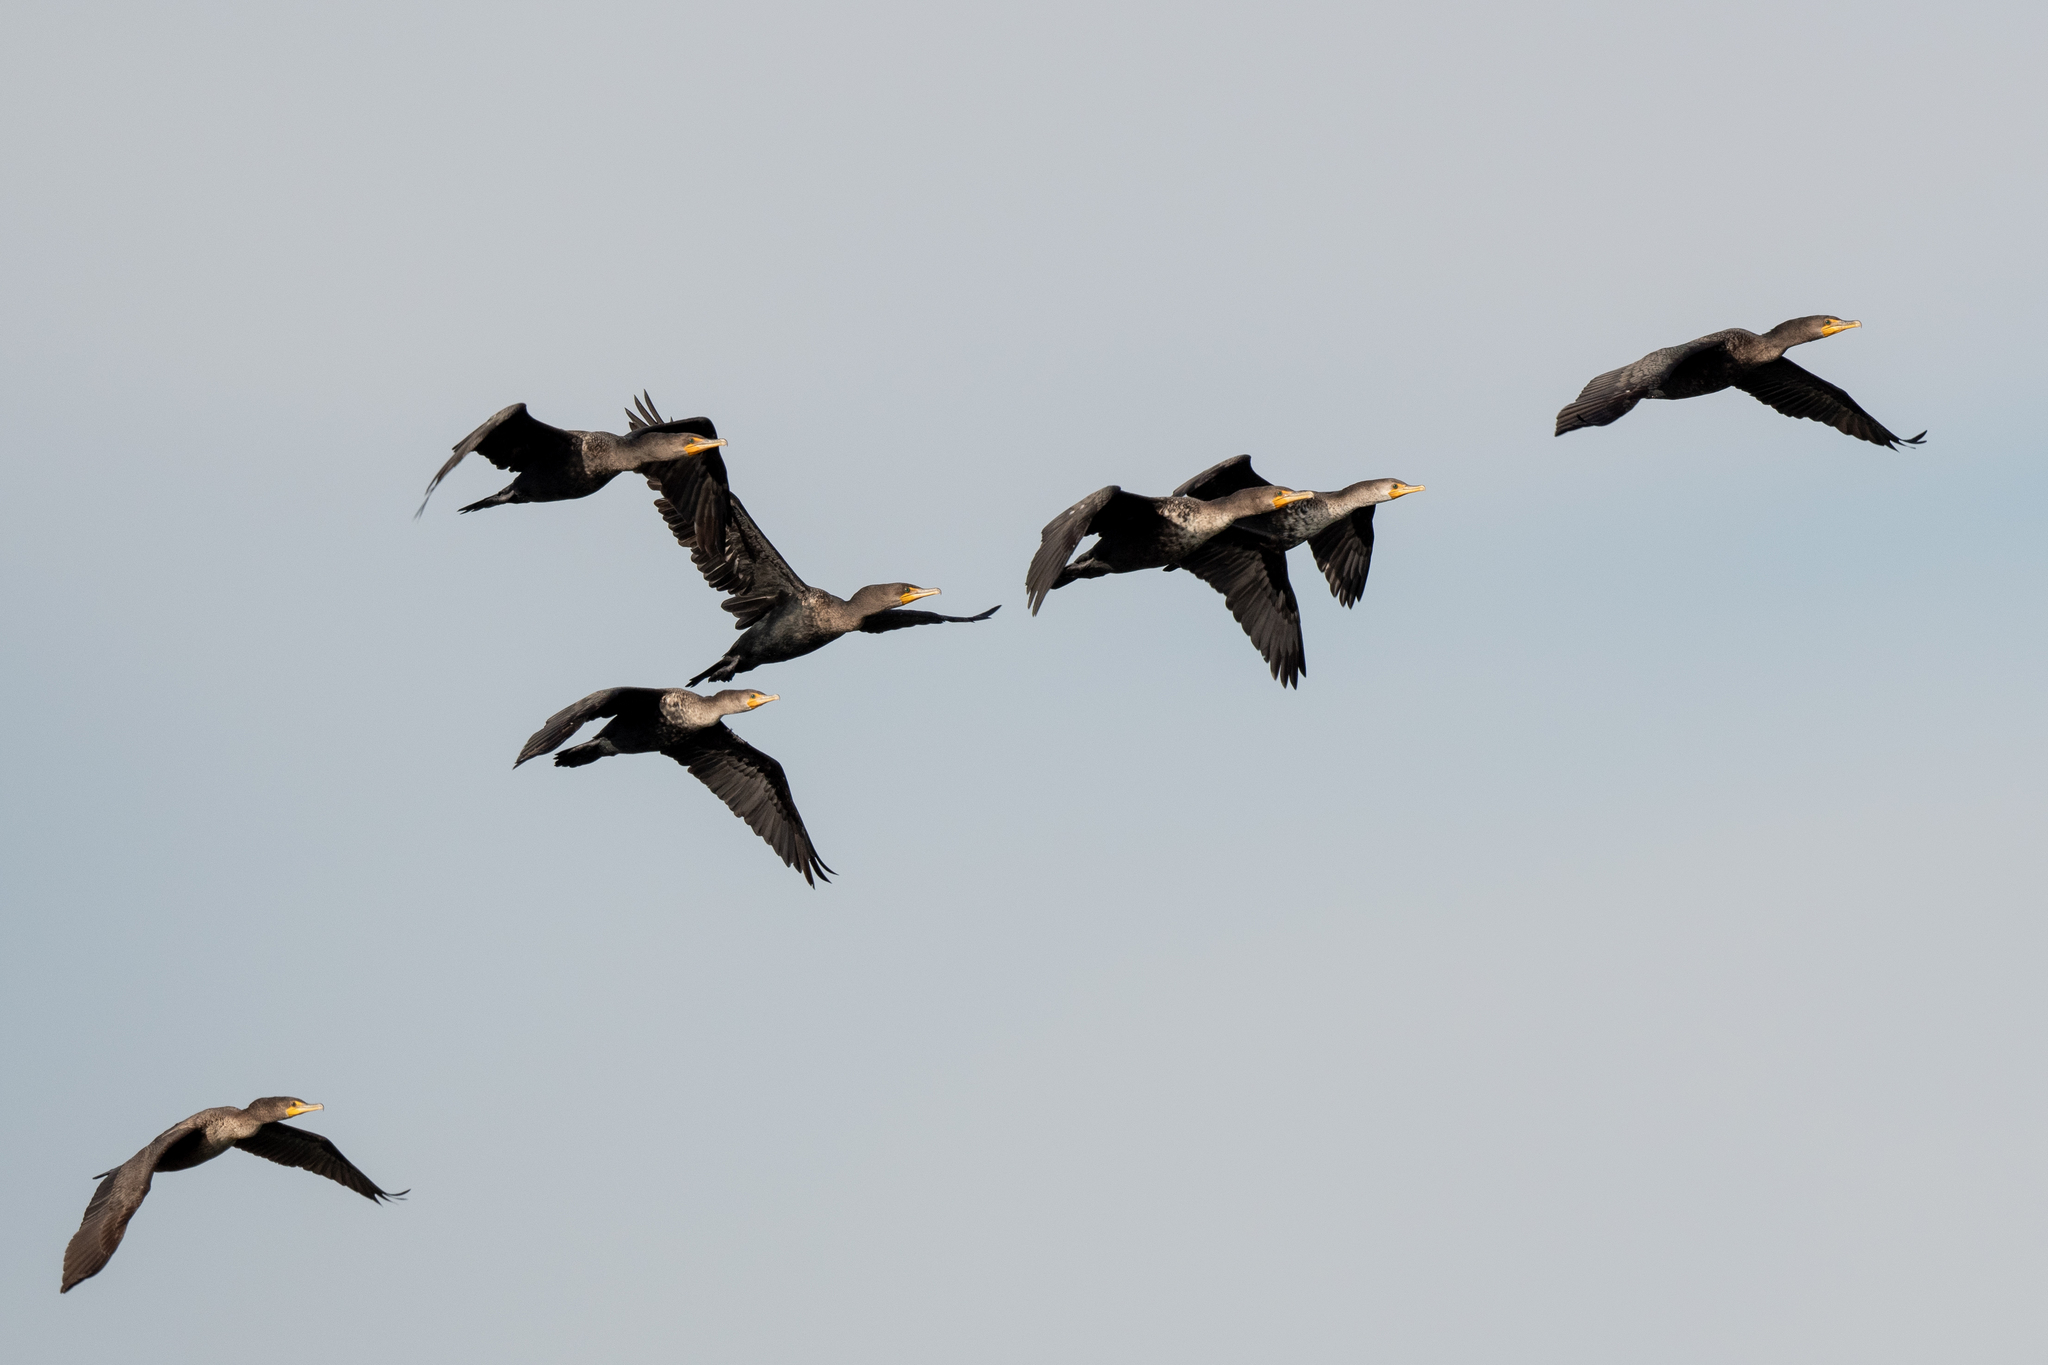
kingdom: Animalia
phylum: Chordata
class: Aves
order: Suliformes
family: Phalacrocoracidae
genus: Phalacrocorax
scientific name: Phalacrocorax auritus
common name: Double-crested cormorant
